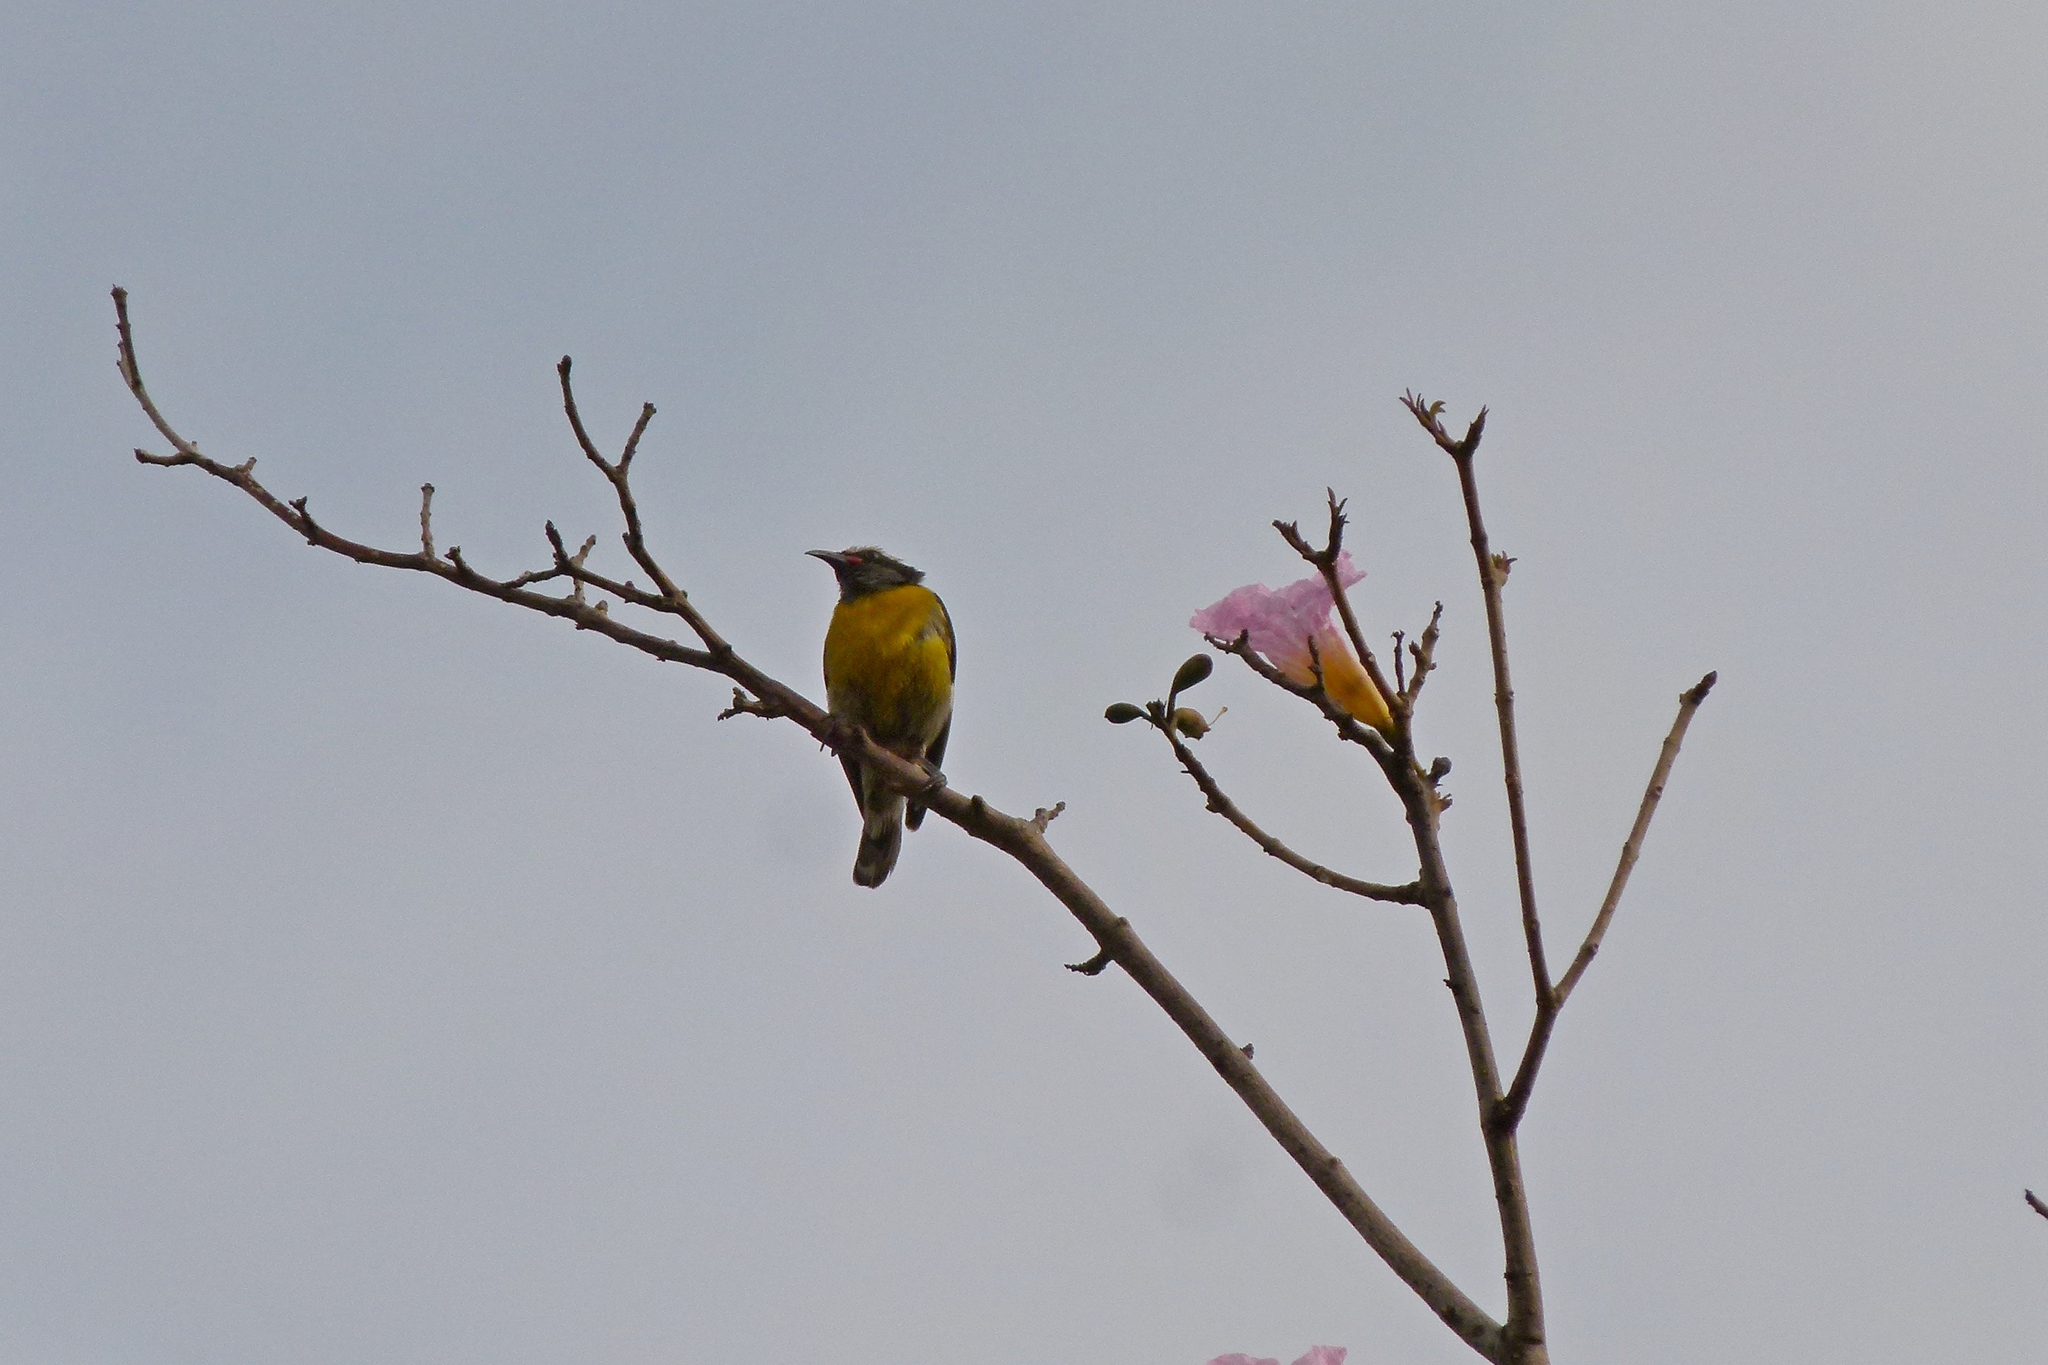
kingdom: Animalia
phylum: Chordata
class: Aves
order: Passeriformes
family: Thraupidae
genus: Coereba
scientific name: Coereba flaveola
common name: Bananaquit
